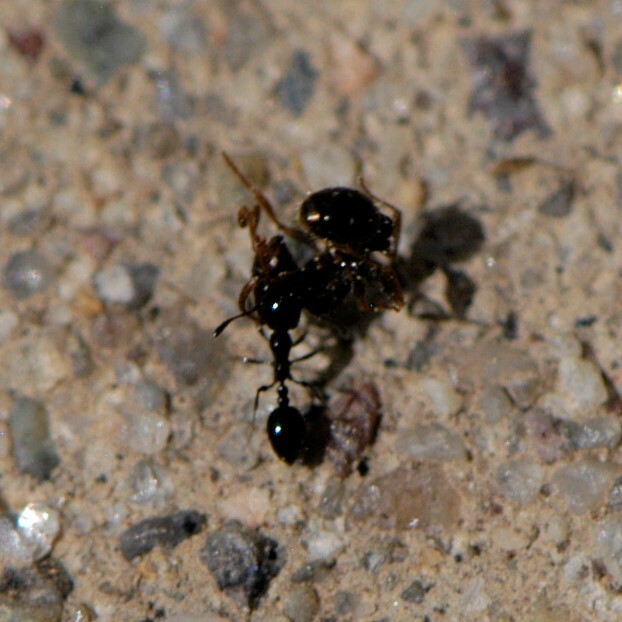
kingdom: Animalia
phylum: Arthropoda
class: Insecta
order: Hymenoptera
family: Formicidae
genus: Monomorium
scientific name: Monomorium
